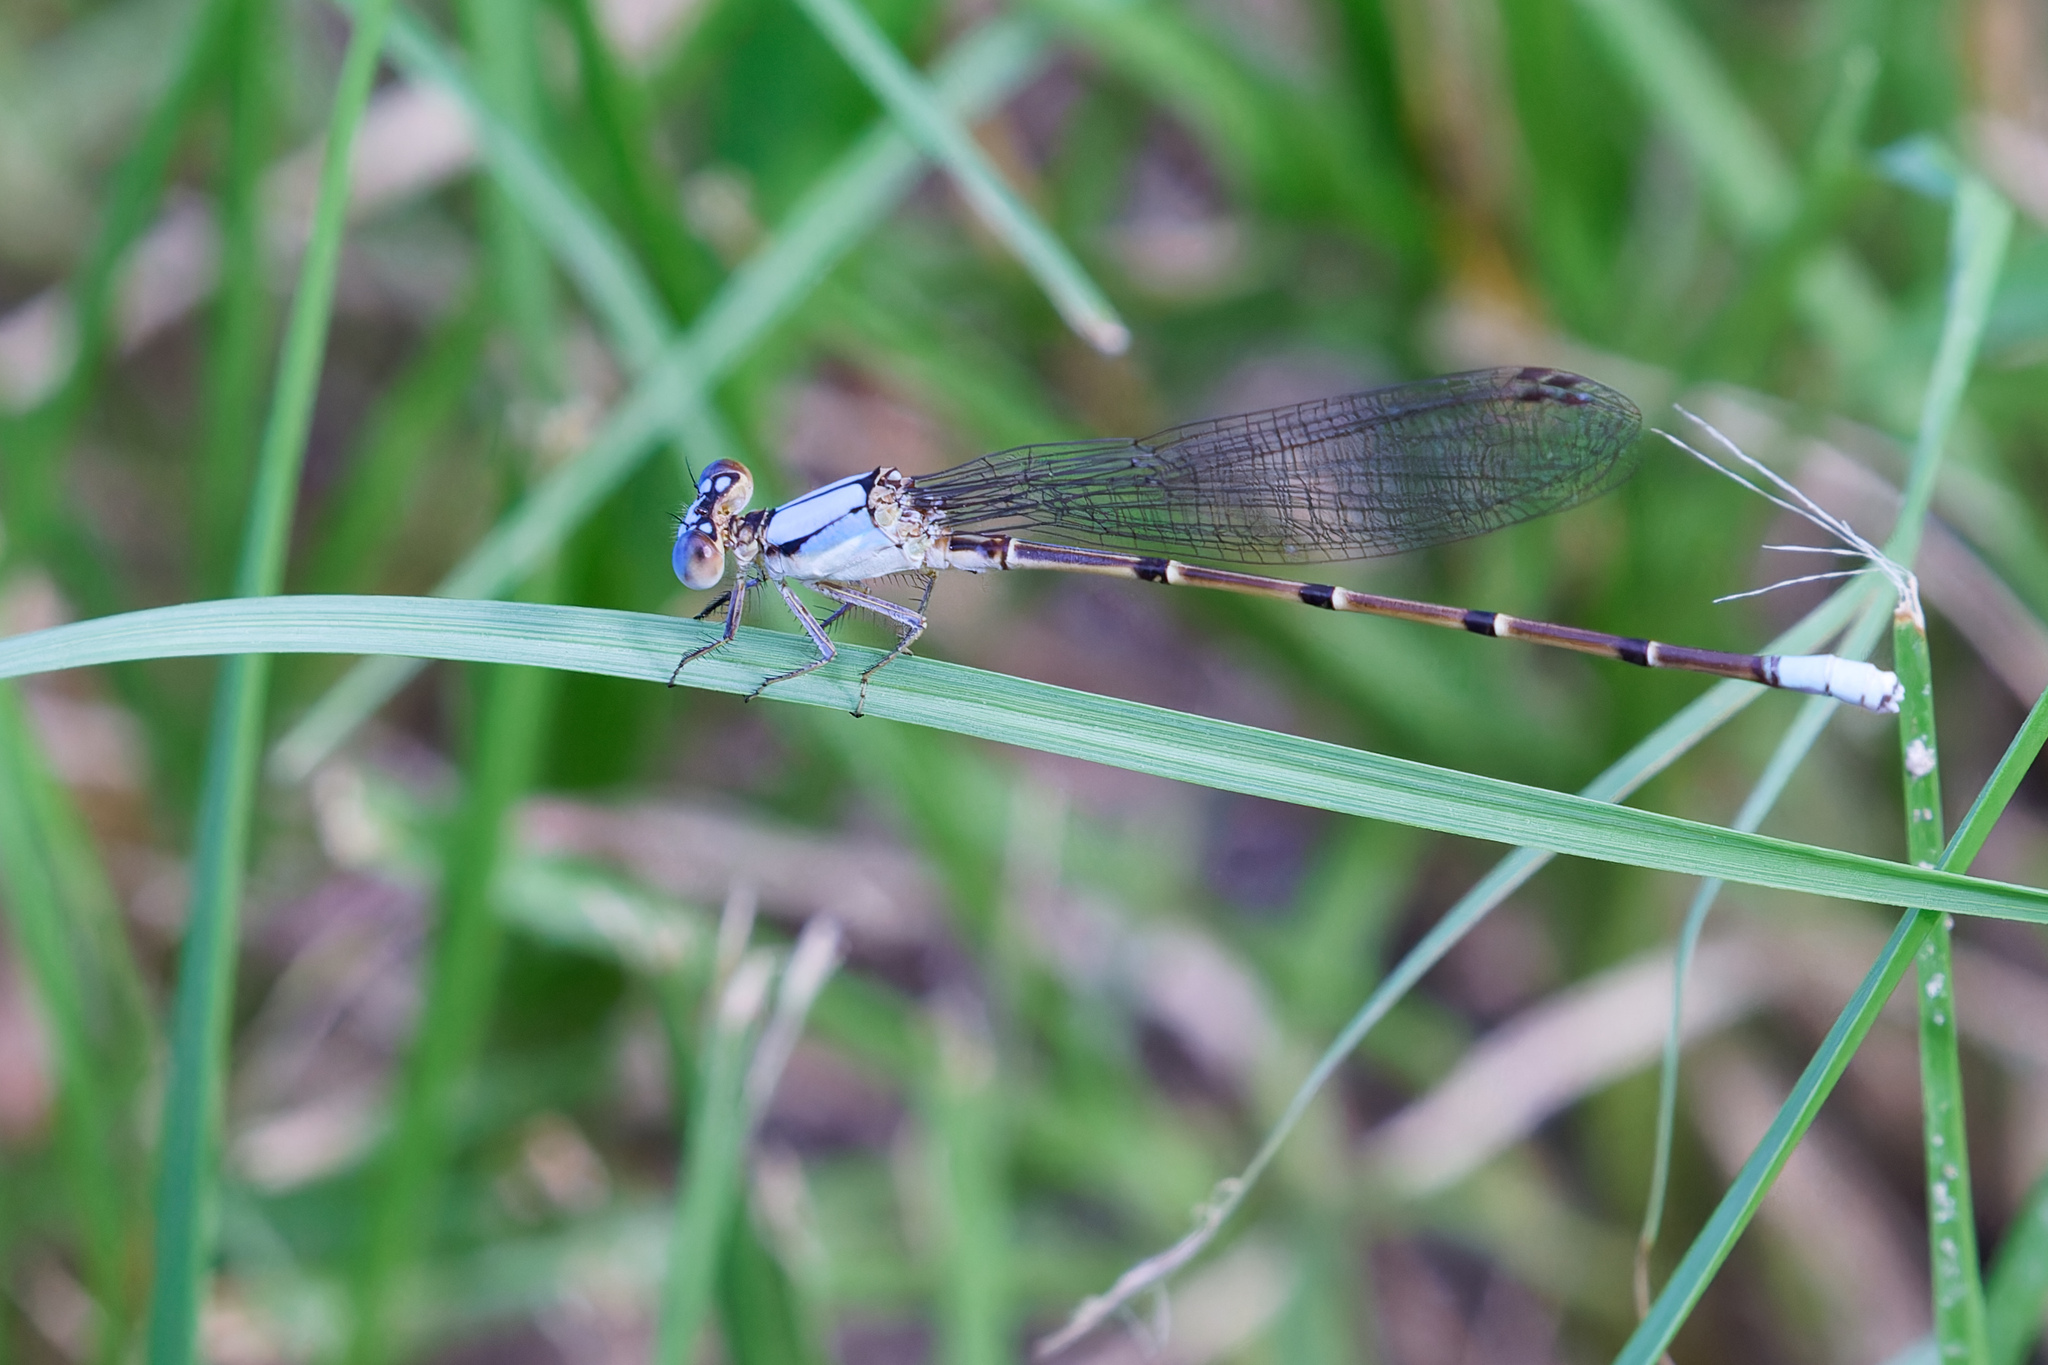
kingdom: Animalia
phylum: Arthropoda
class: Insecta
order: Odonata
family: Coenagrionidae
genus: Argia
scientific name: Argia apicalis
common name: Blue-fronted dancer
